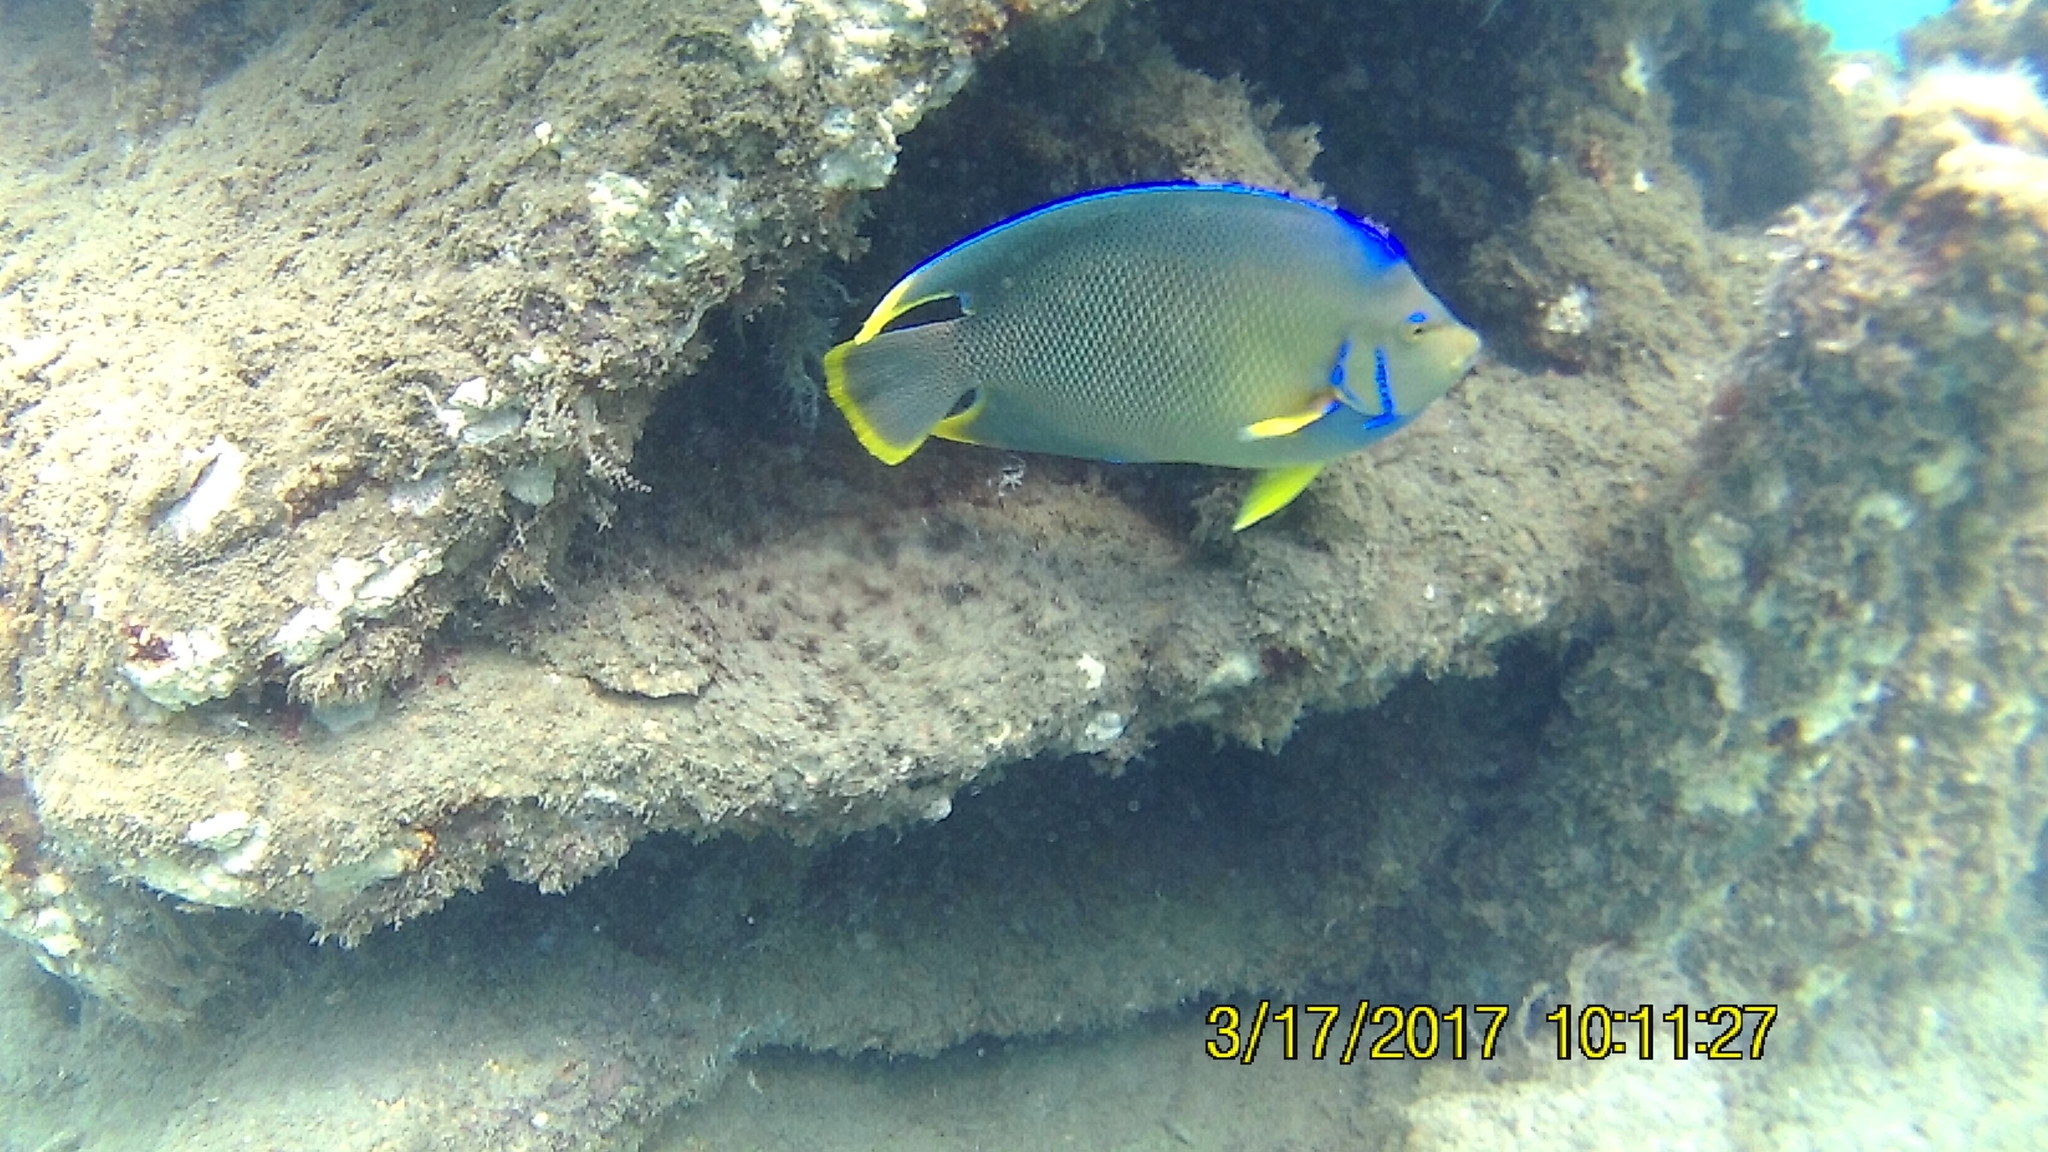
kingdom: Animalia
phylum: Chordata
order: Perciformes
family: Pomacanthidae
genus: Holacanthus
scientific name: Holacanthus bermudensis
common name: Blue angelfish
